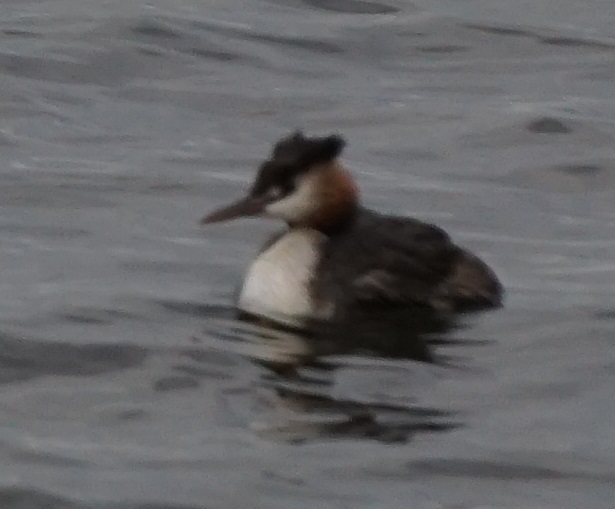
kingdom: Animalia
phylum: Chordata
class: Aves
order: Podicipediformes
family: Podicipedidae
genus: Podiceps
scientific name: Podiceps cristatus
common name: Great crested grebe
